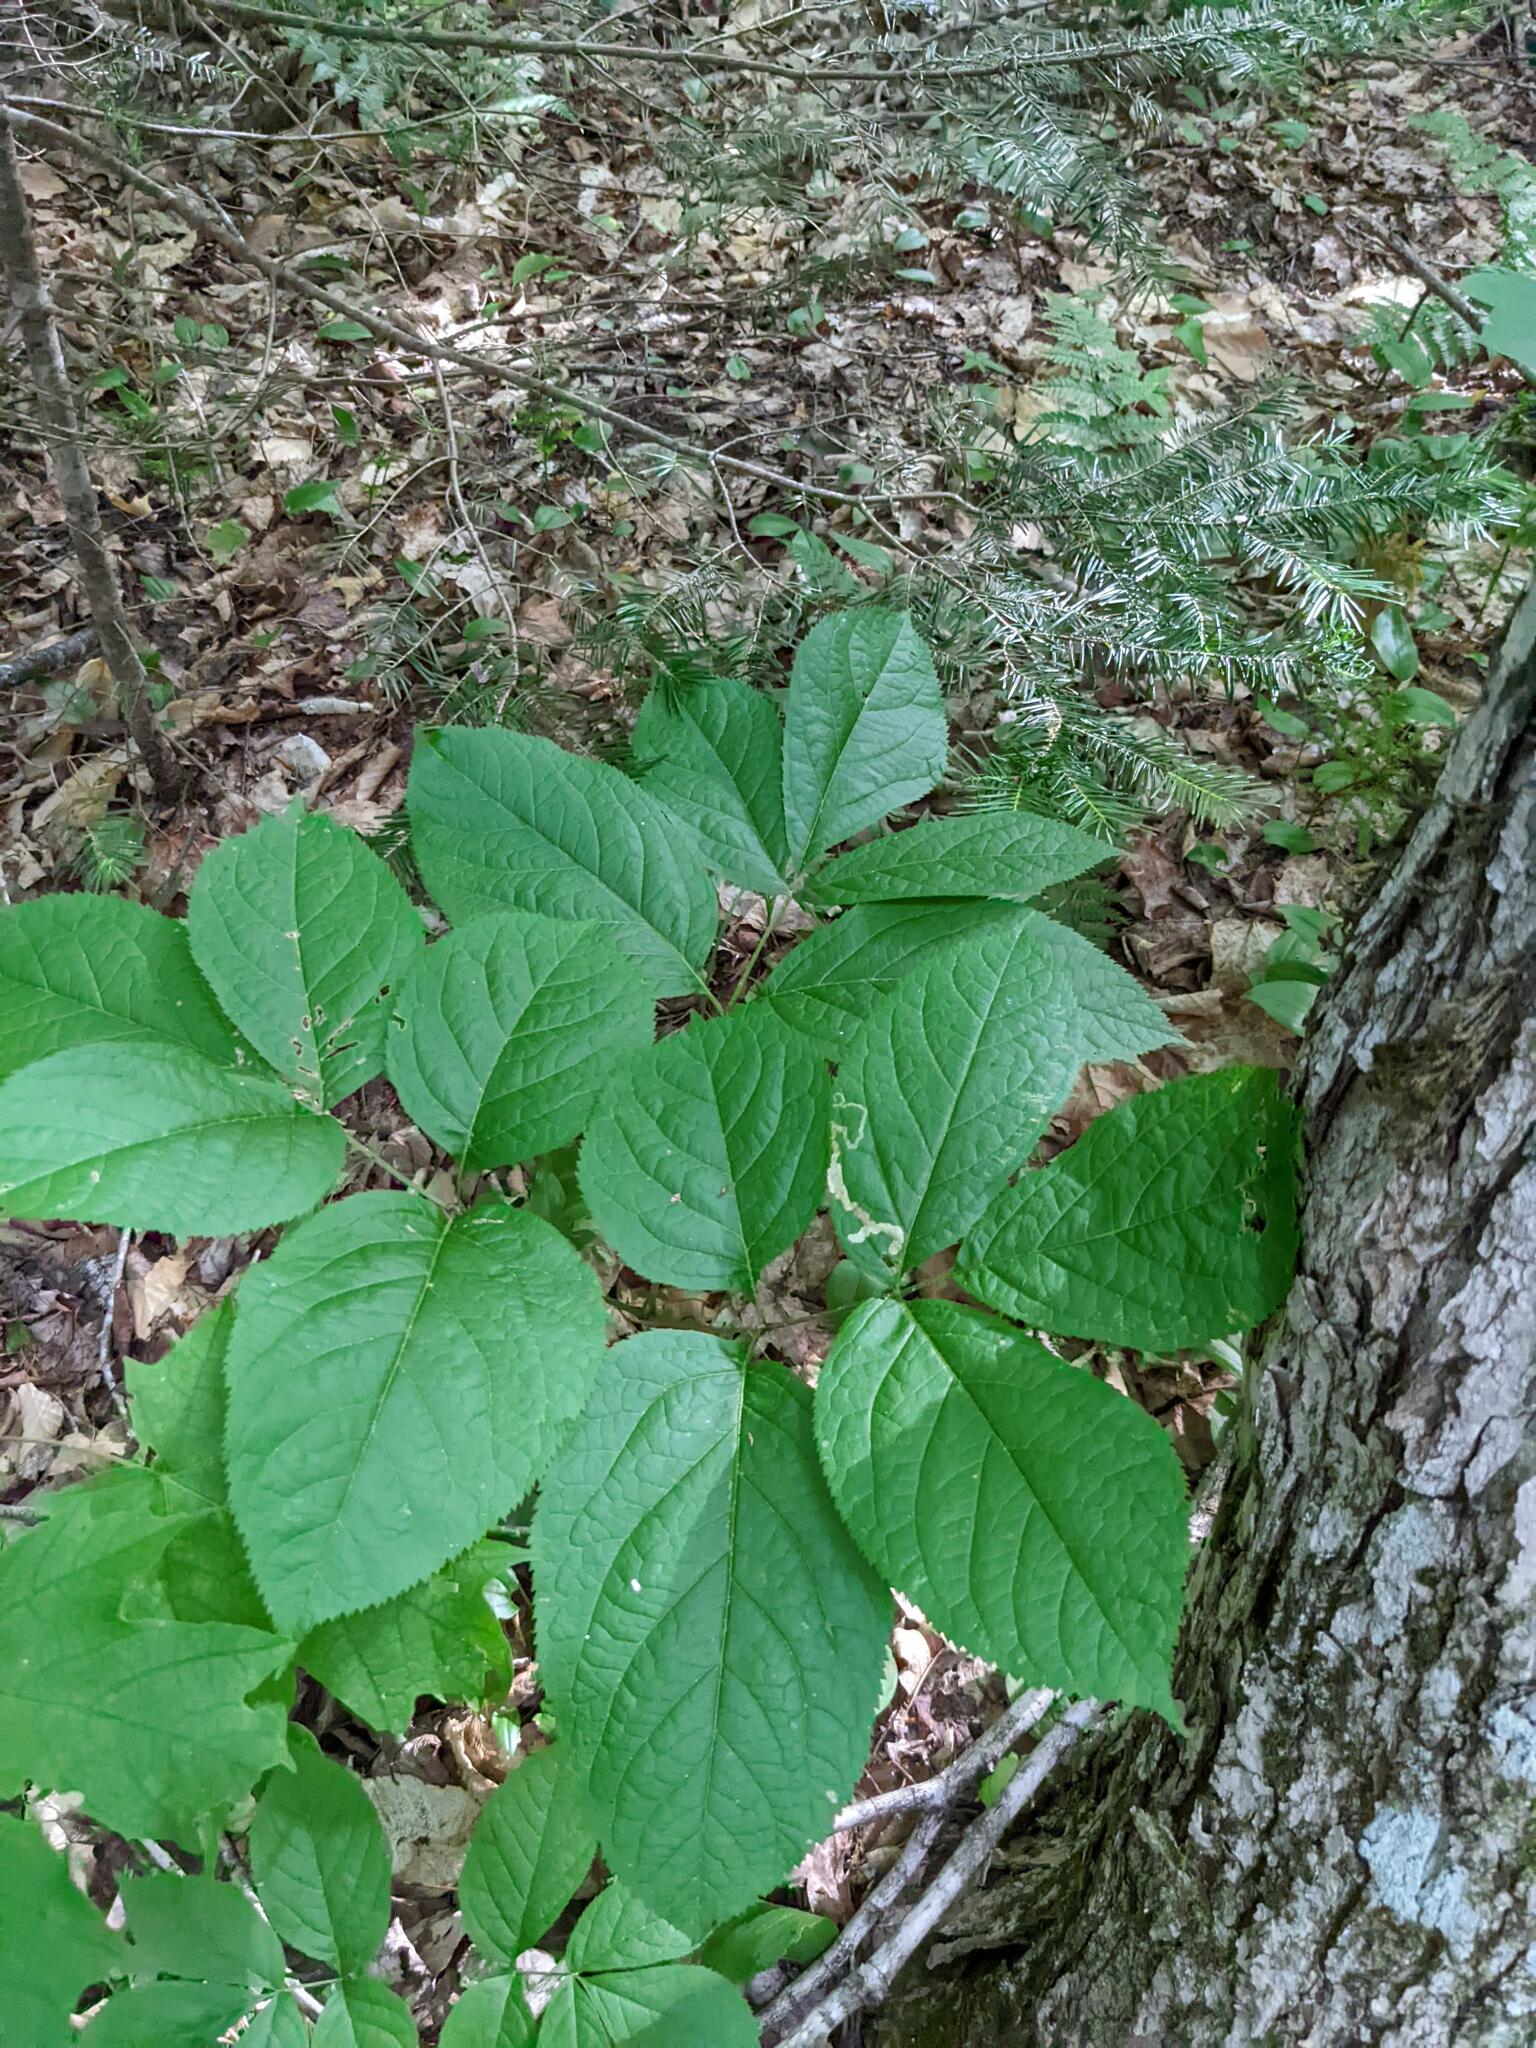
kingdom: Plantae
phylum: Tracheophyta
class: Magnoliopsida
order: Apiales
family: Araliaceae
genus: Aralia
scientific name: Aralia nudicaulis
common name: Wild sarsaparilla
